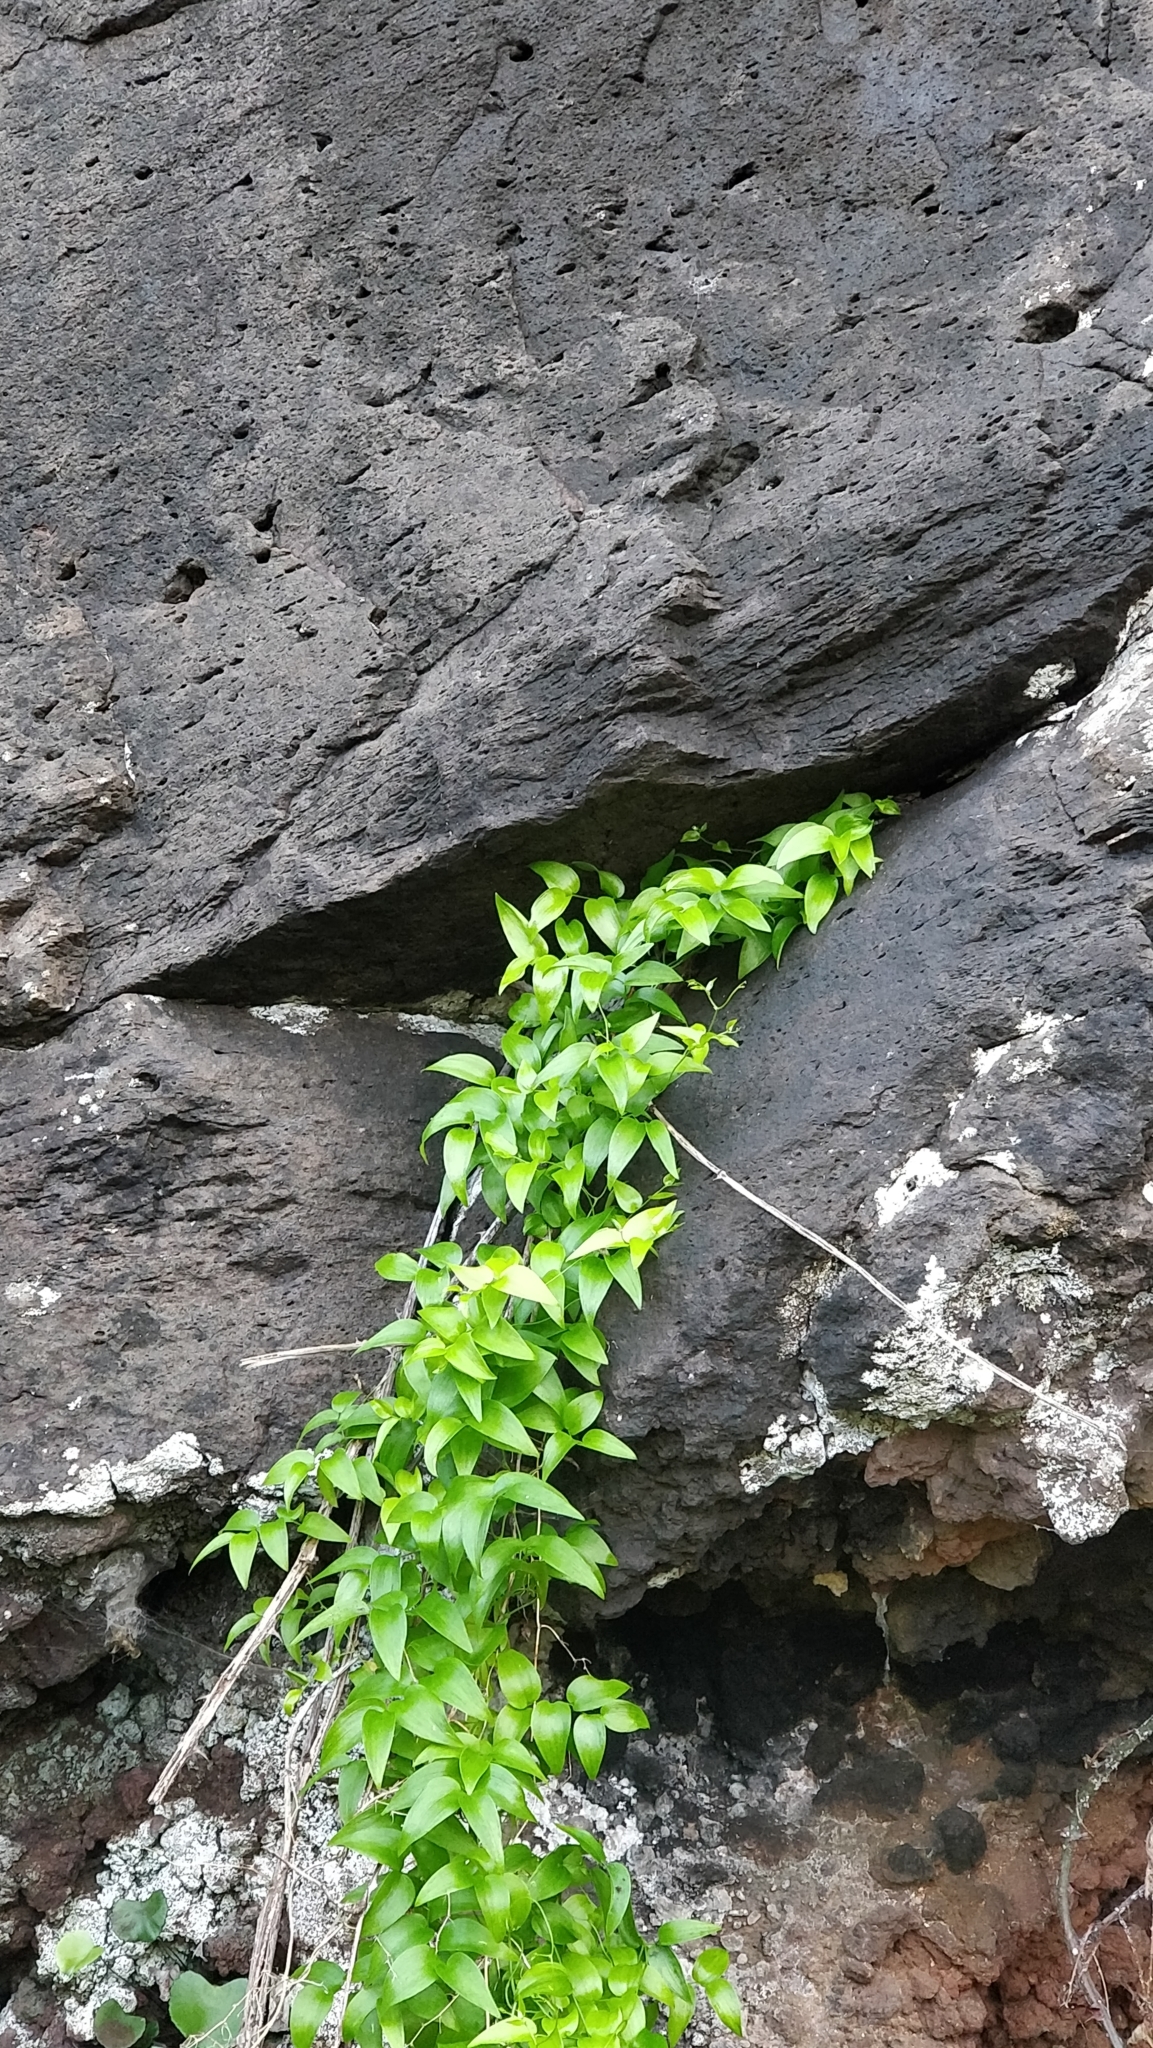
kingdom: Plantae
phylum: Tracheophyta
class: Liliopsida
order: Asparagales
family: Asparagaceae
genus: Asparagus
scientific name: Asparagus asparagoides
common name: African asparagus fern
